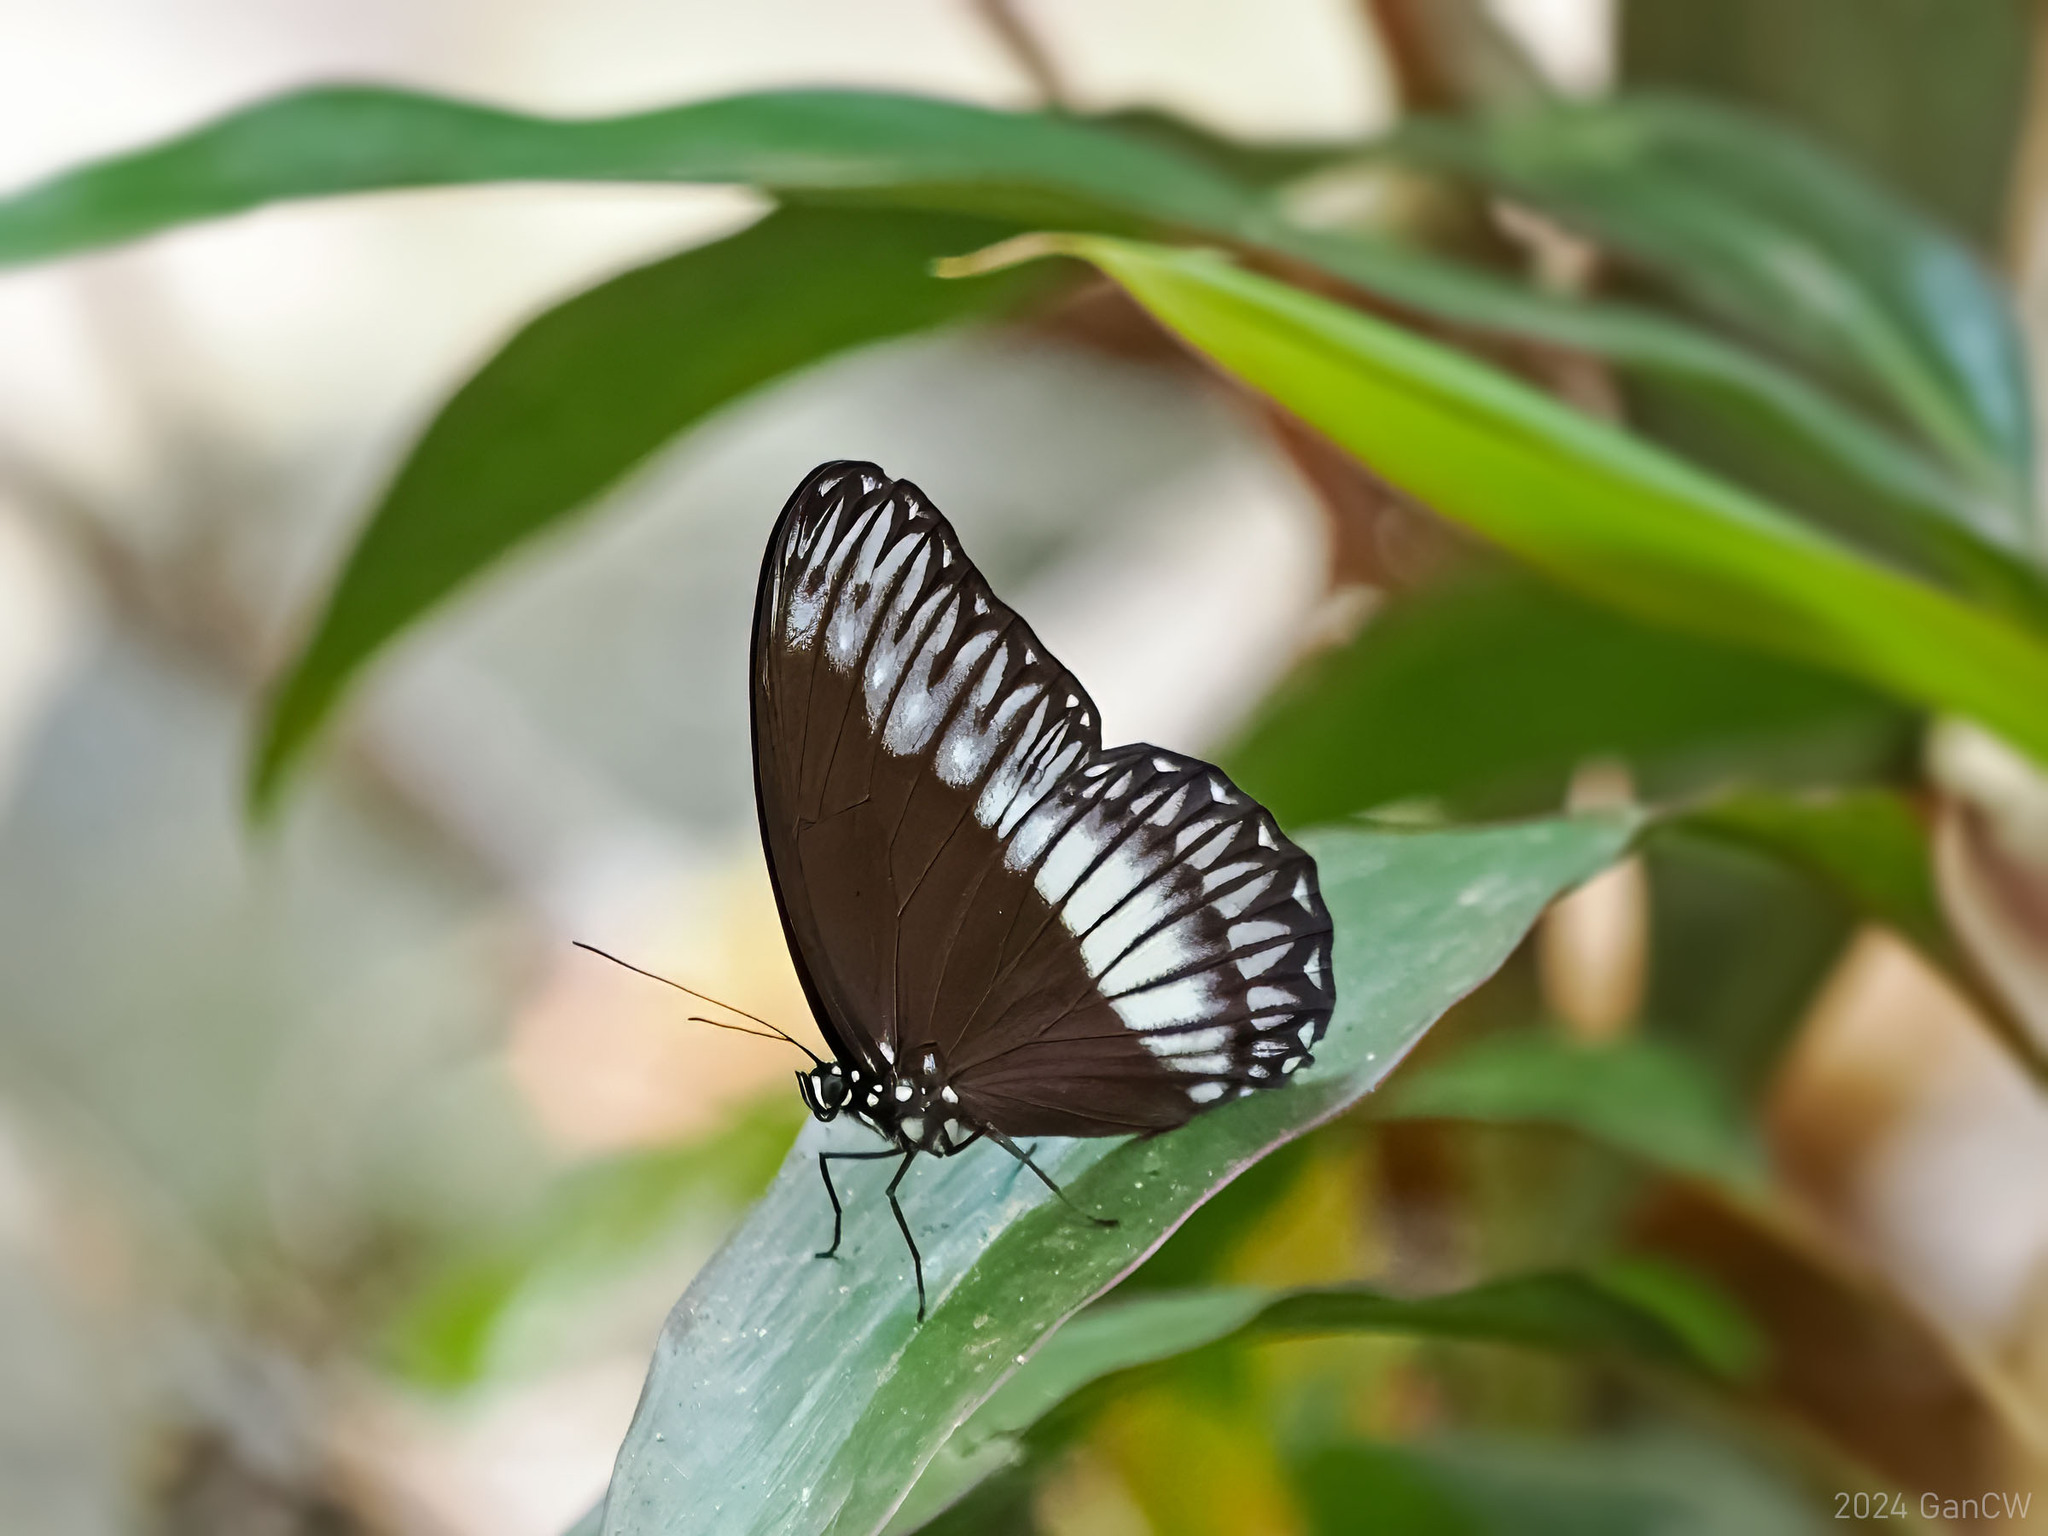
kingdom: Animalia
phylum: Arthropoda
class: Insecta
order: Lepidoptera
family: Nymphalidae
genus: Zethera
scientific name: Zethera pimplea
